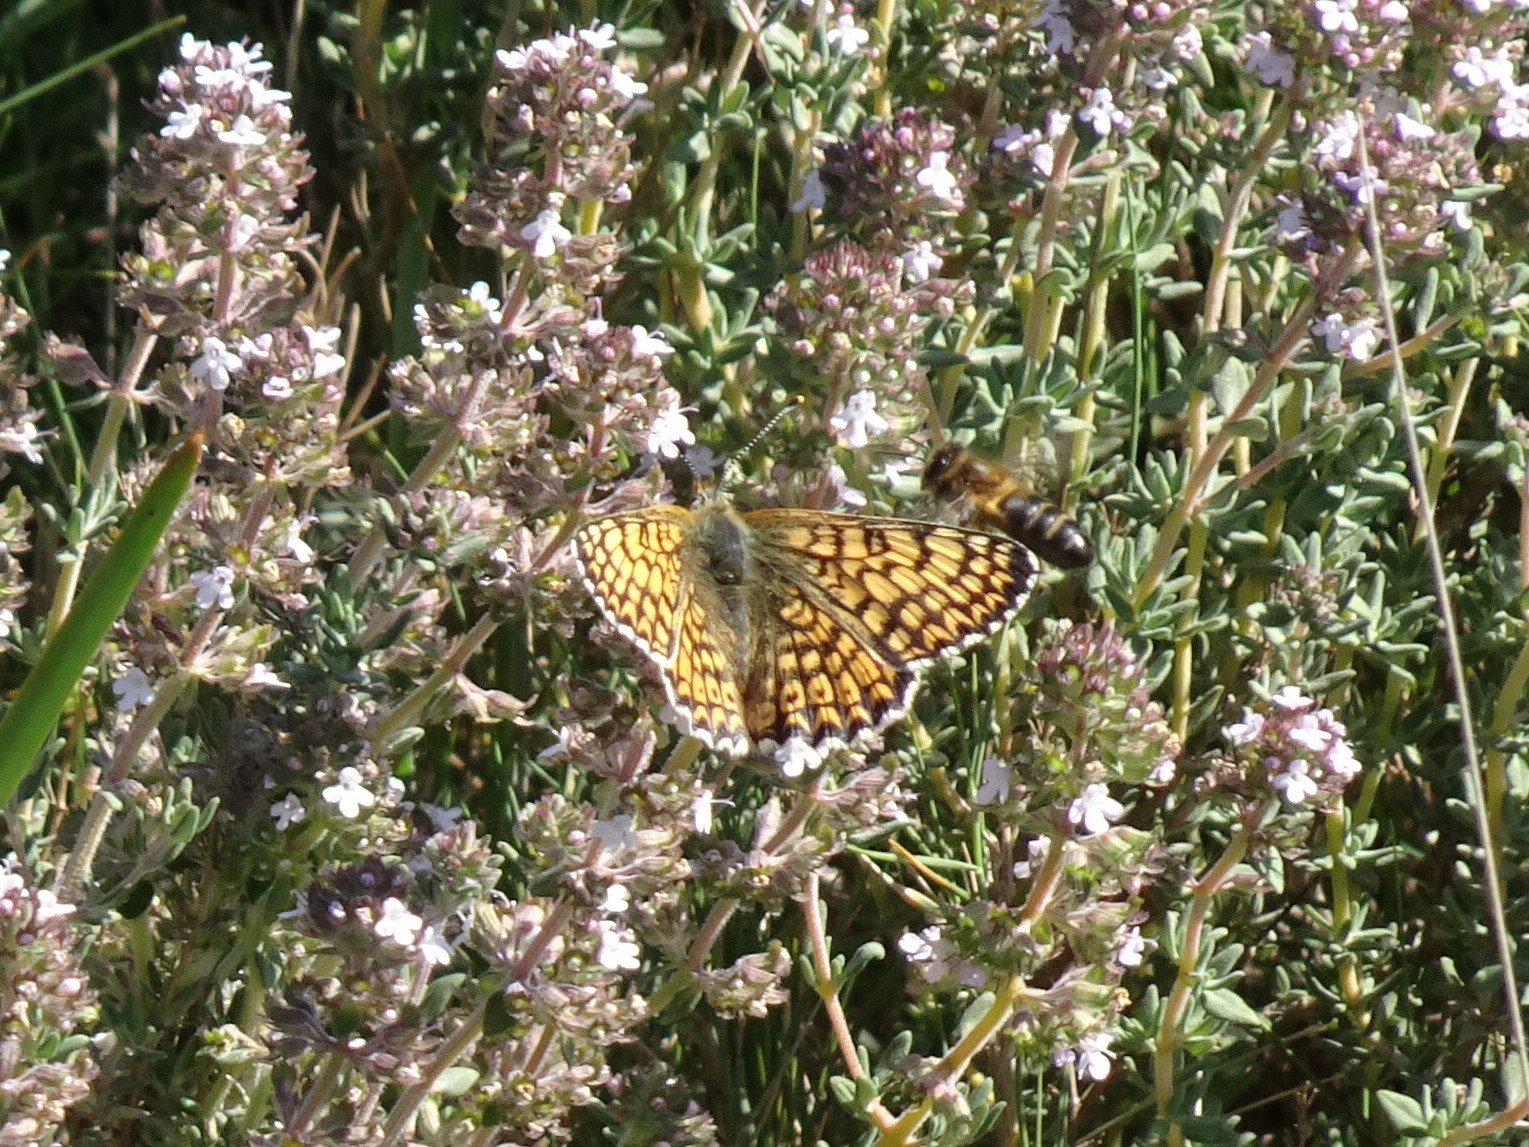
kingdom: Animalia
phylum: Arthropoda
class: Insecta
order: Lepidoptera
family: Nymphalidae
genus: Melitaea
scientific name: Melitaea cinxia
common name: Glanville fritillary
